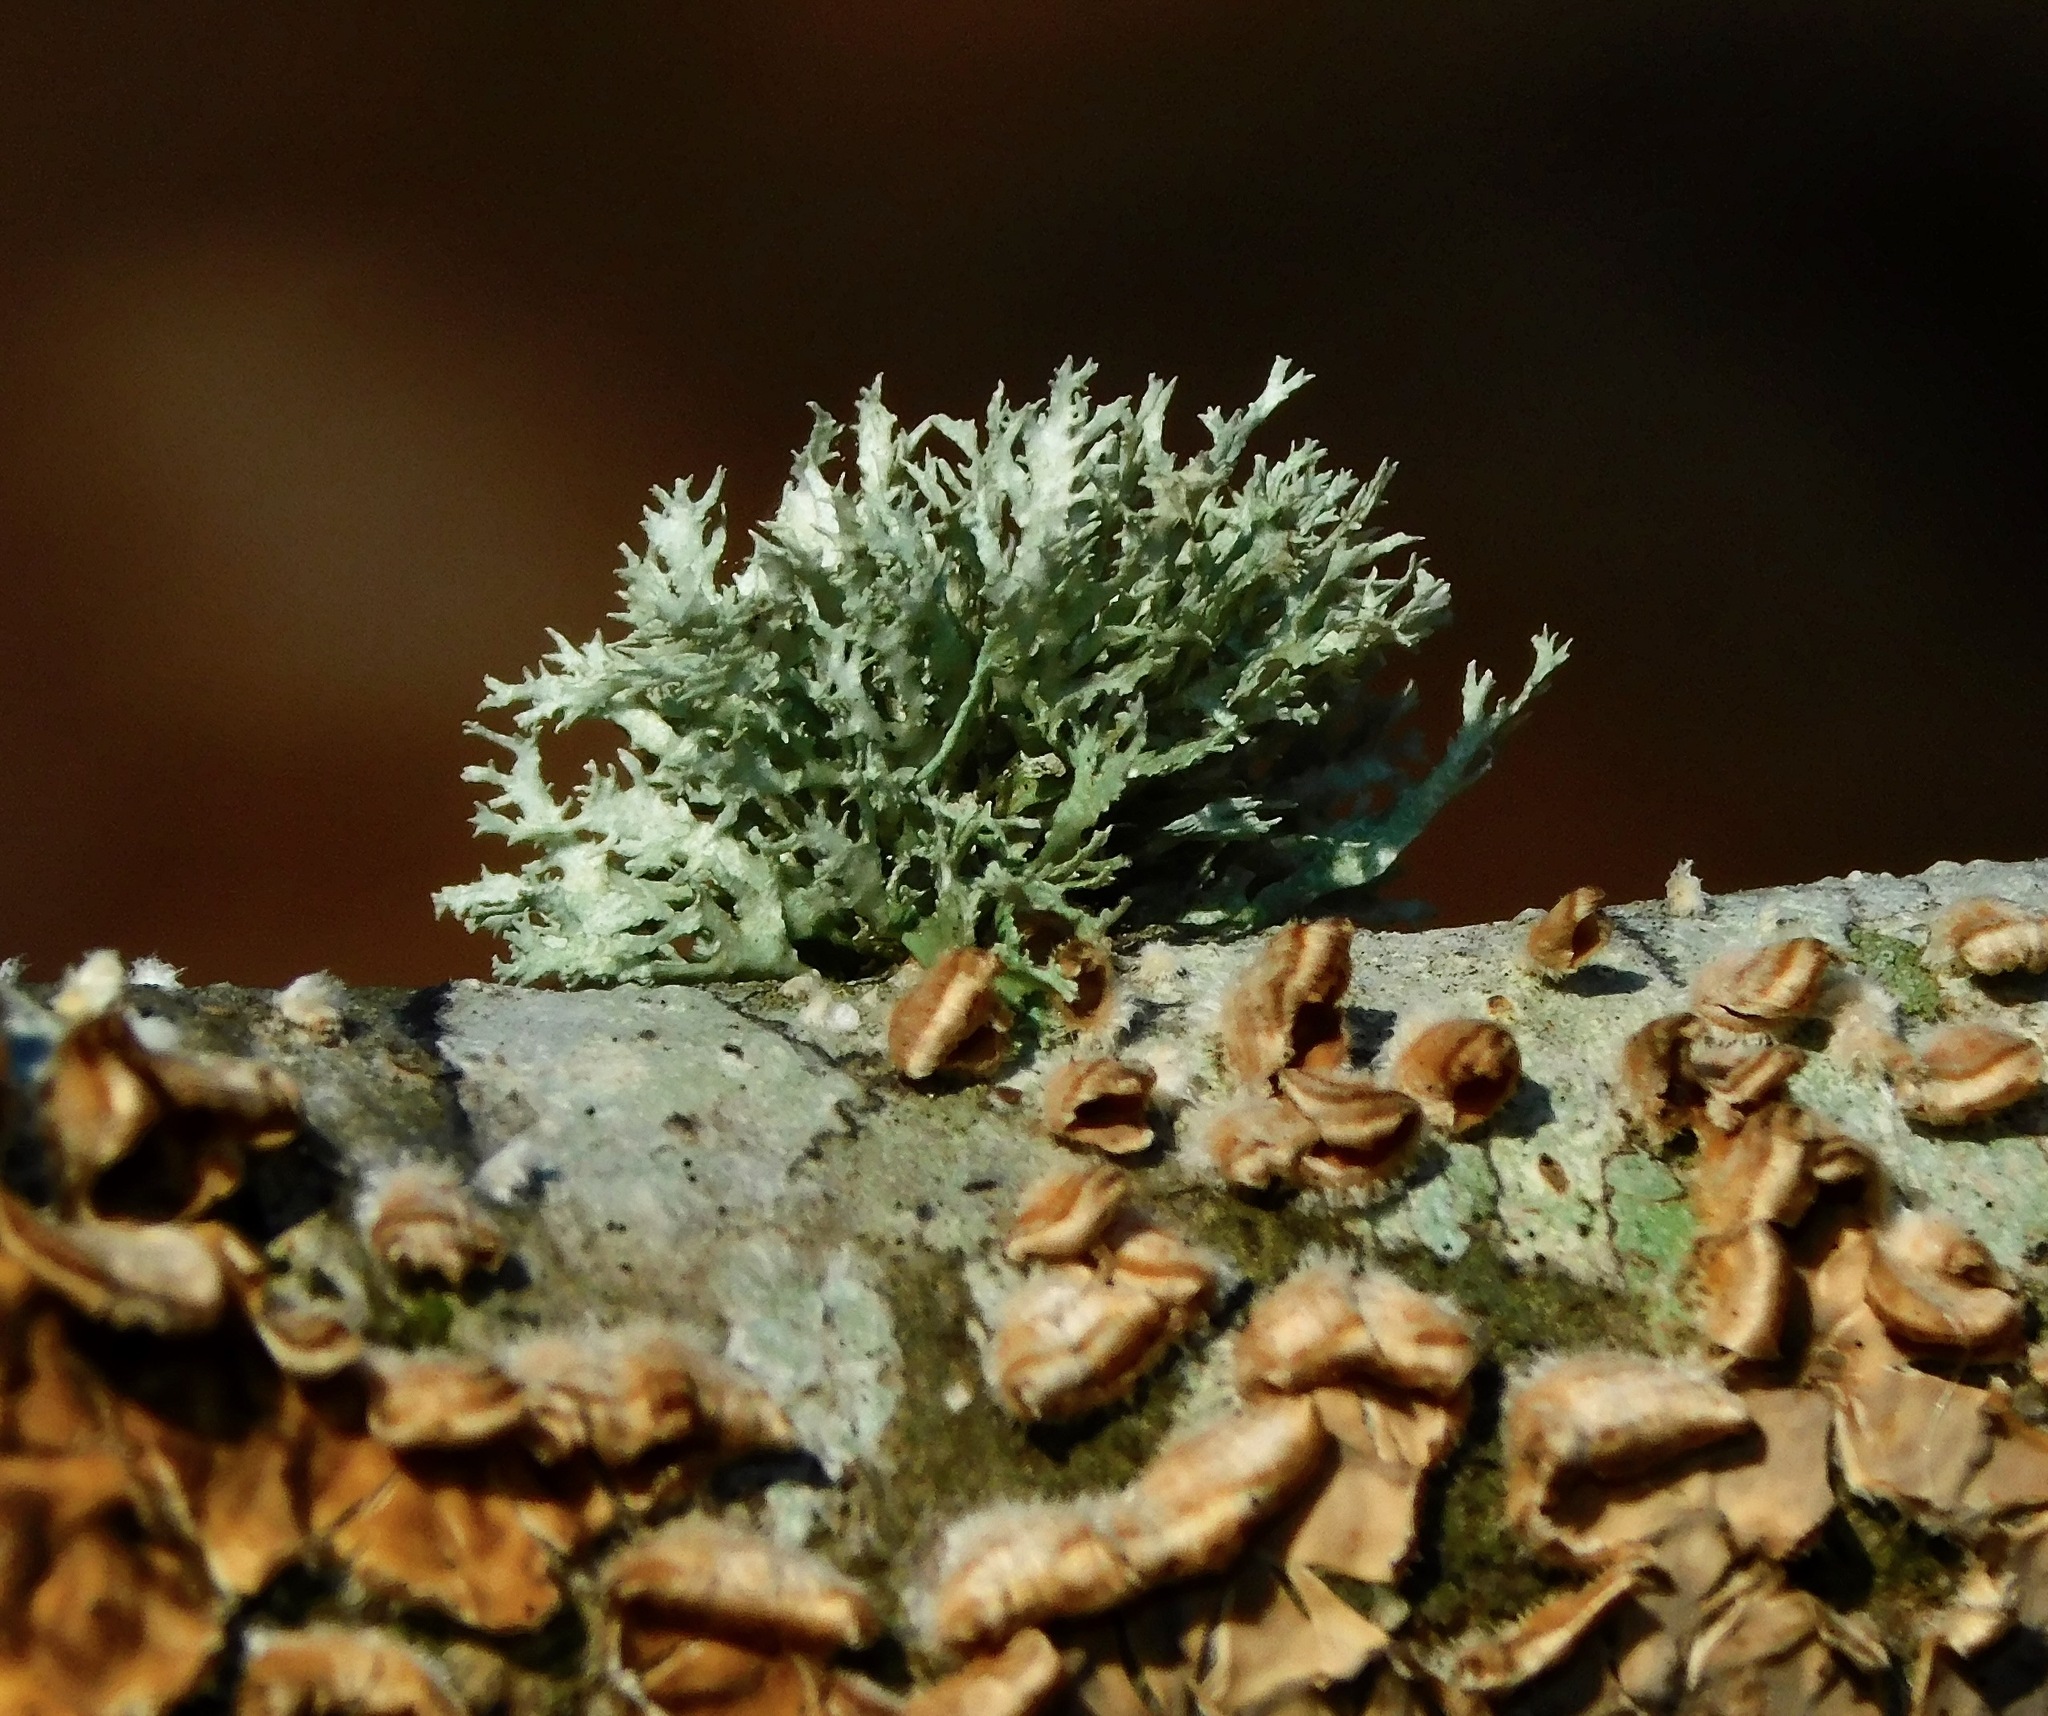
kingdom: Fungi
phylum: Ascomycota
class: Lecanoromycetes
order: Lecanorales
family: Ramalinaceae
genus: Ramalina
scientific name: Ramalina americana
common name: Sinewed bush lichen
